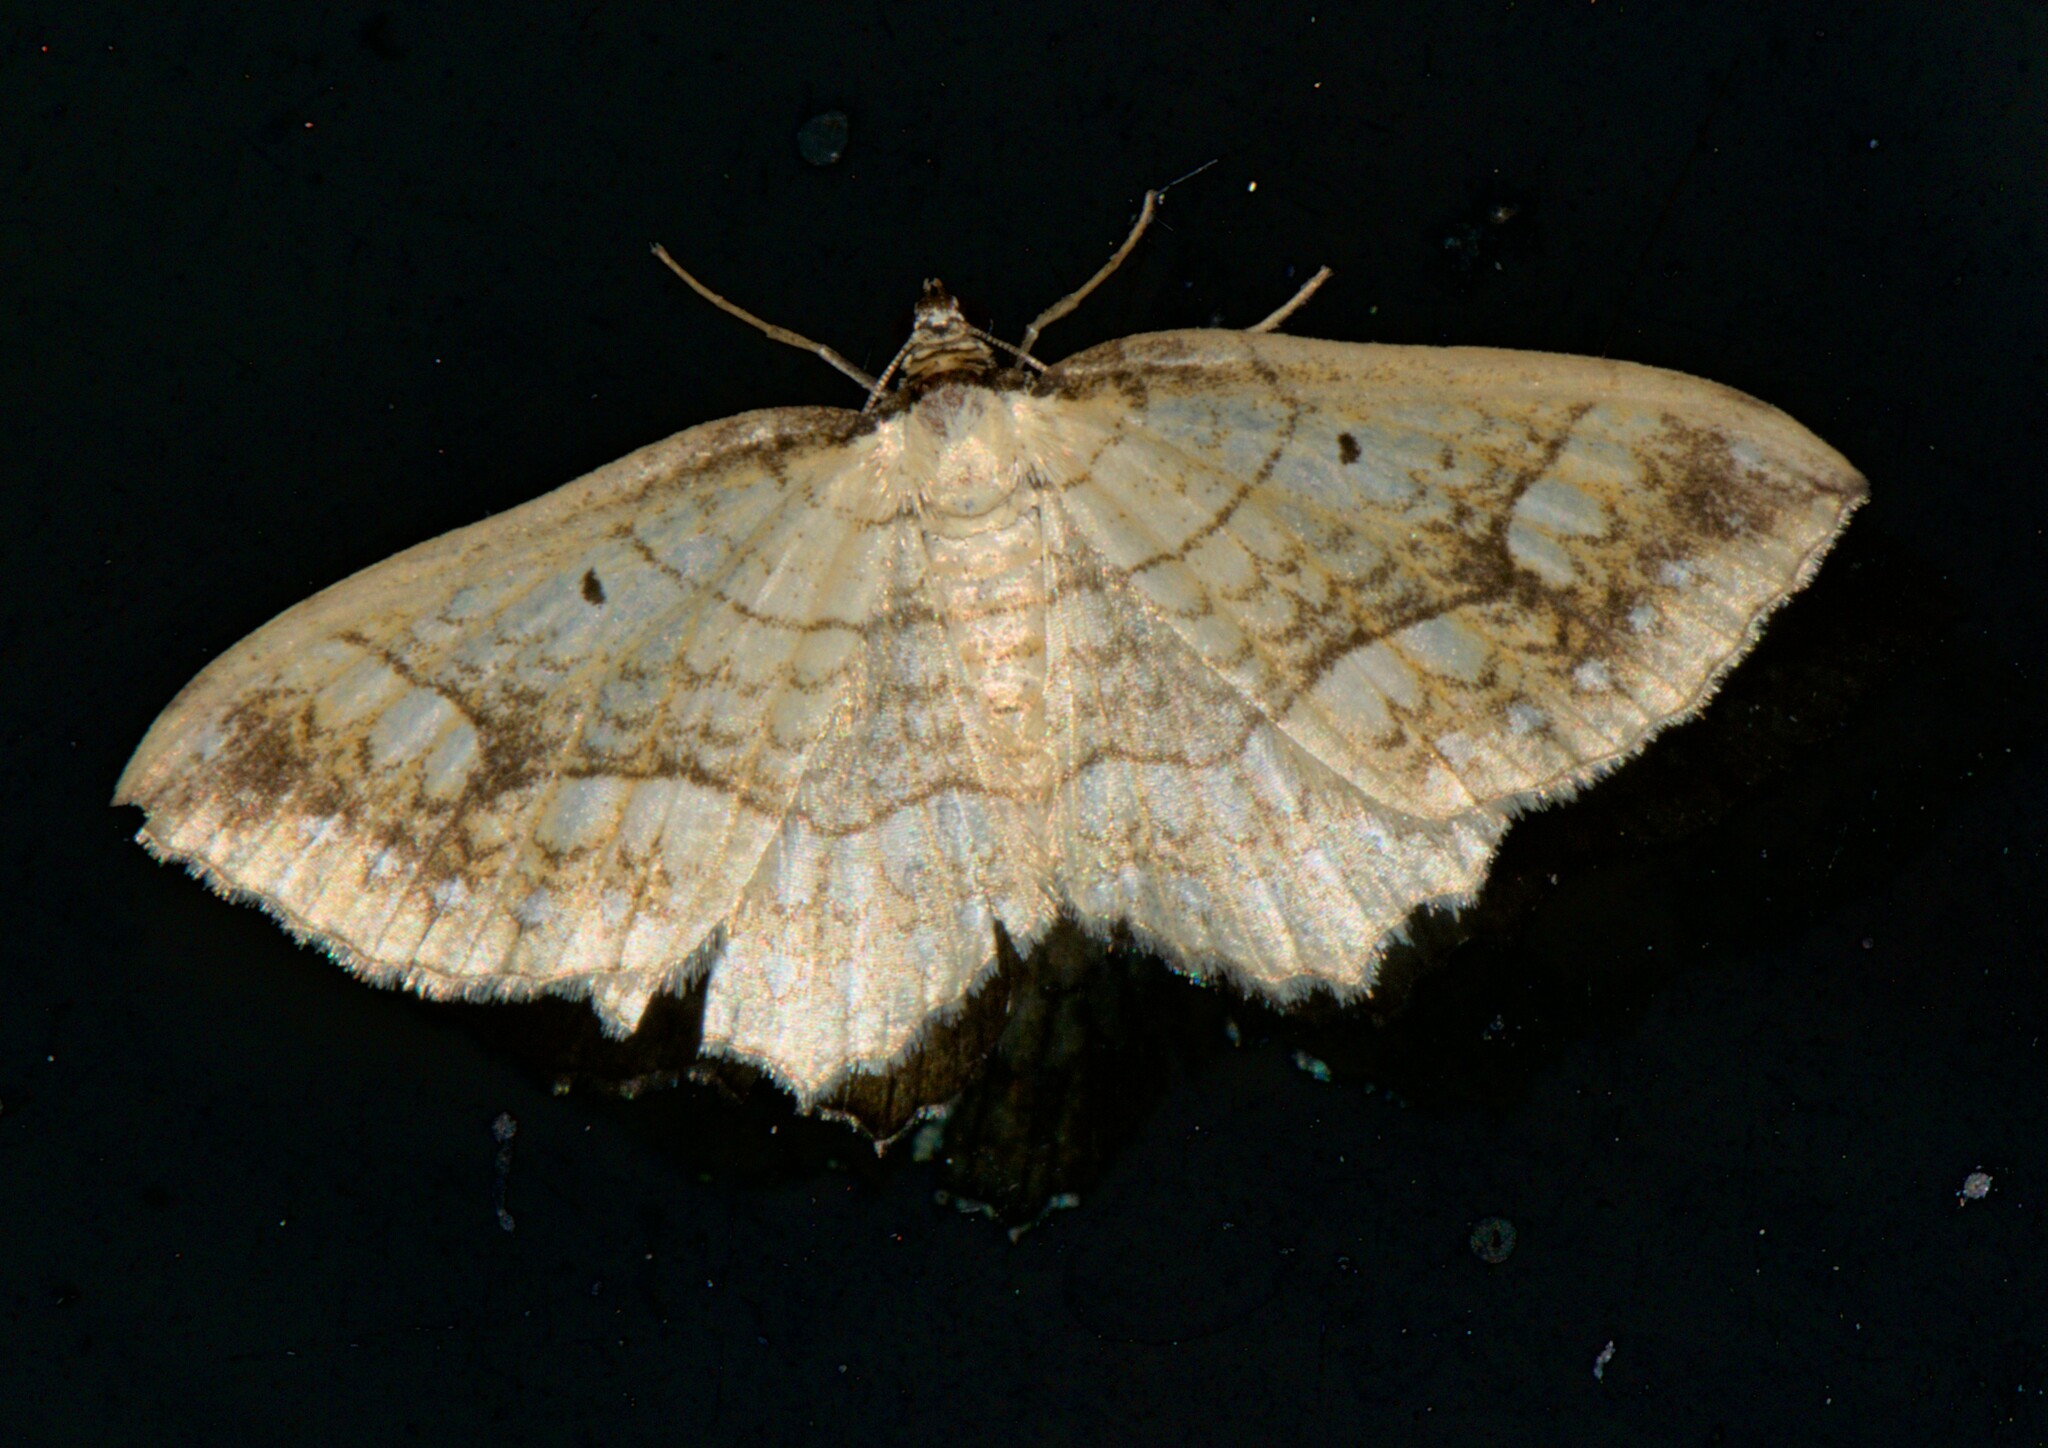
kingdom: Animalia
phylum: Arthropoda
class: Insecta
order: Lepidoptera
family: Geometridae
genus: Laciniodes
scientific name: Laciniodes plurilinearia
